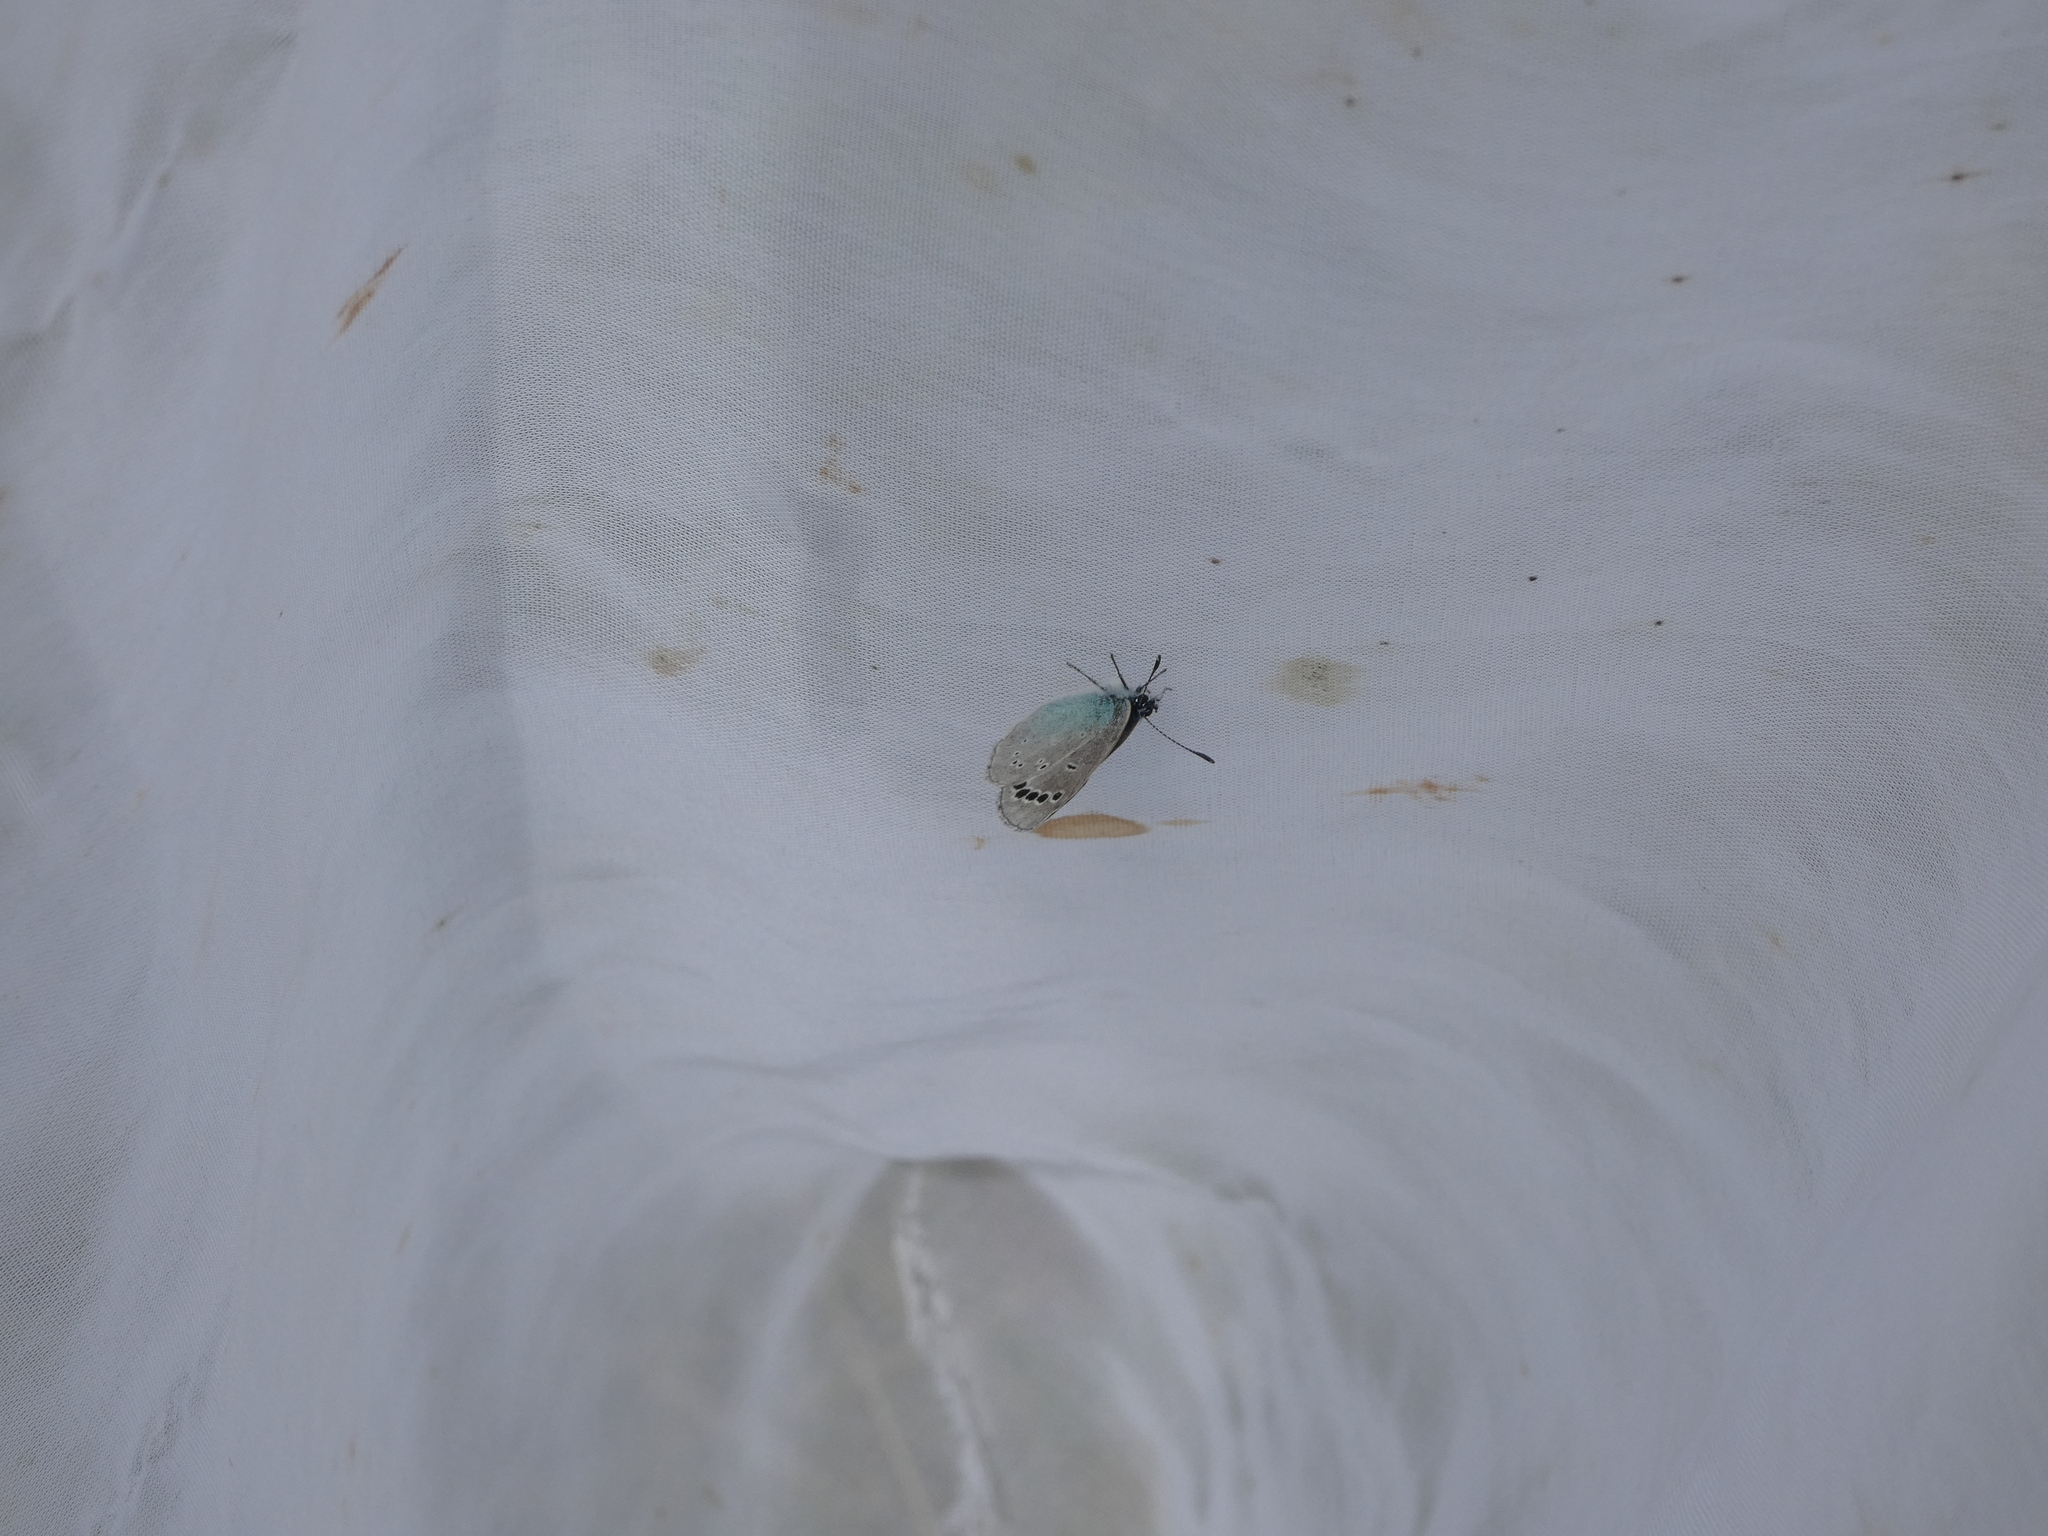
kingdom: Animalia
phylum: Arthropoda
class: Insecta
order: Lepidoptera
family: Lycaenidae
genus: Glaucopsyche
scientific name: Glaucopsyche alexis
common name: Green-underside blue
